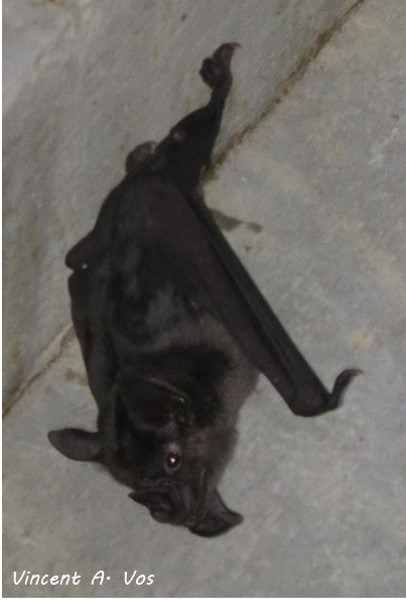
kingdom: Animalia
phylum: Chordata
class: Mammalia
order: Chiroptera
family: Phyllostomidae
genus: Phyllostomus
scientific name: Phyllostomus hastatus
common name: Greater spear-nosed bat
